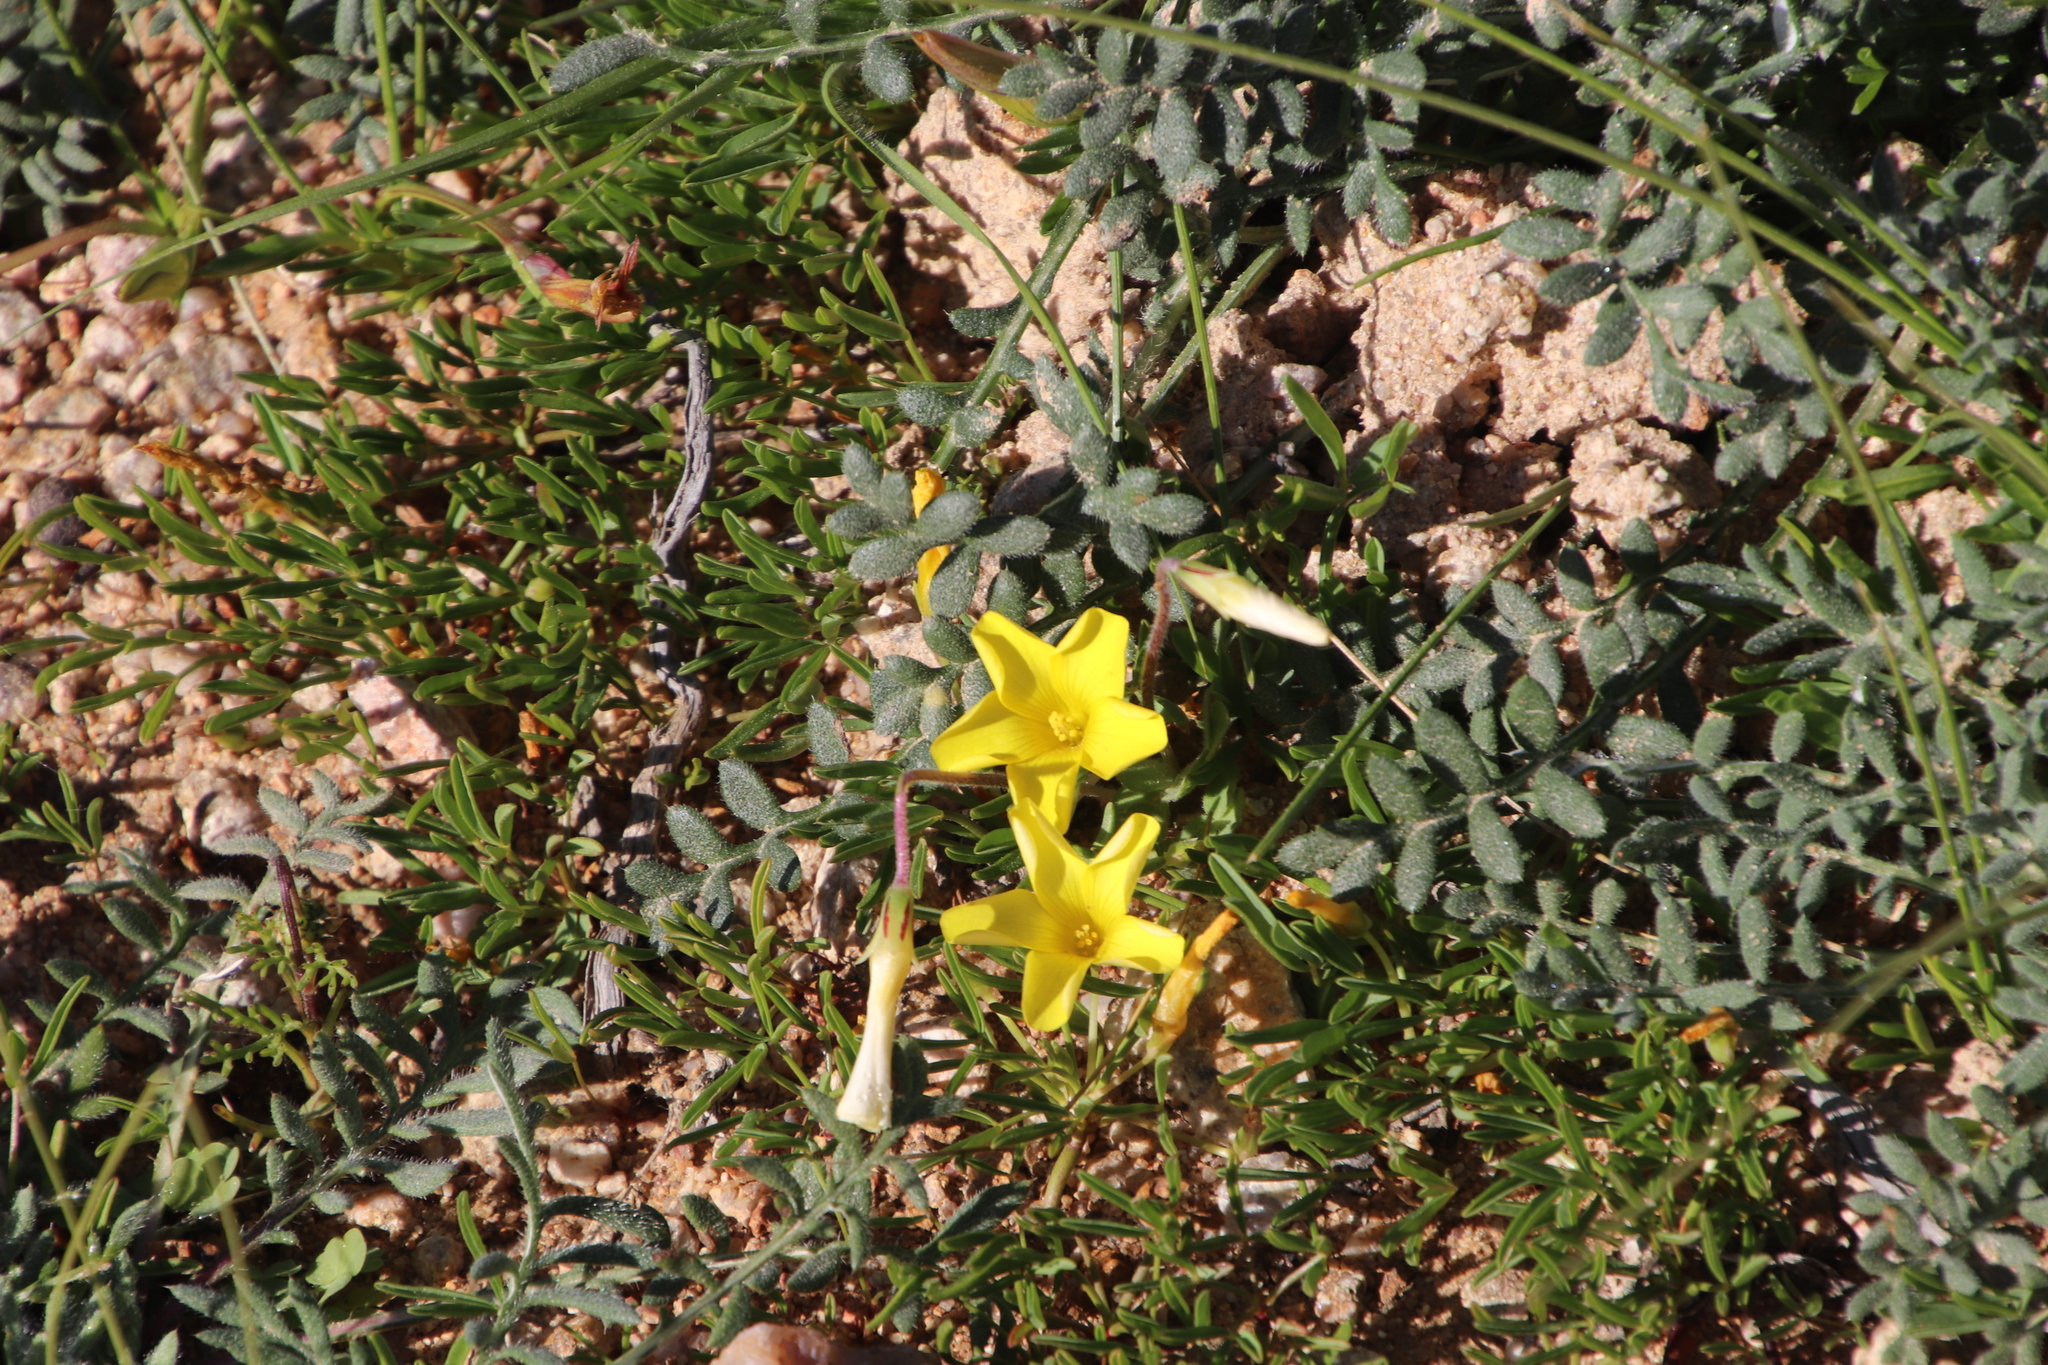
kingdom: Plantae
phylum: Tracheophyta
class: Magnoliopsida
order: Oxalidales
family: Oxalidaceae
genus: Oxalis
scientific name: Oxalis namaquana
